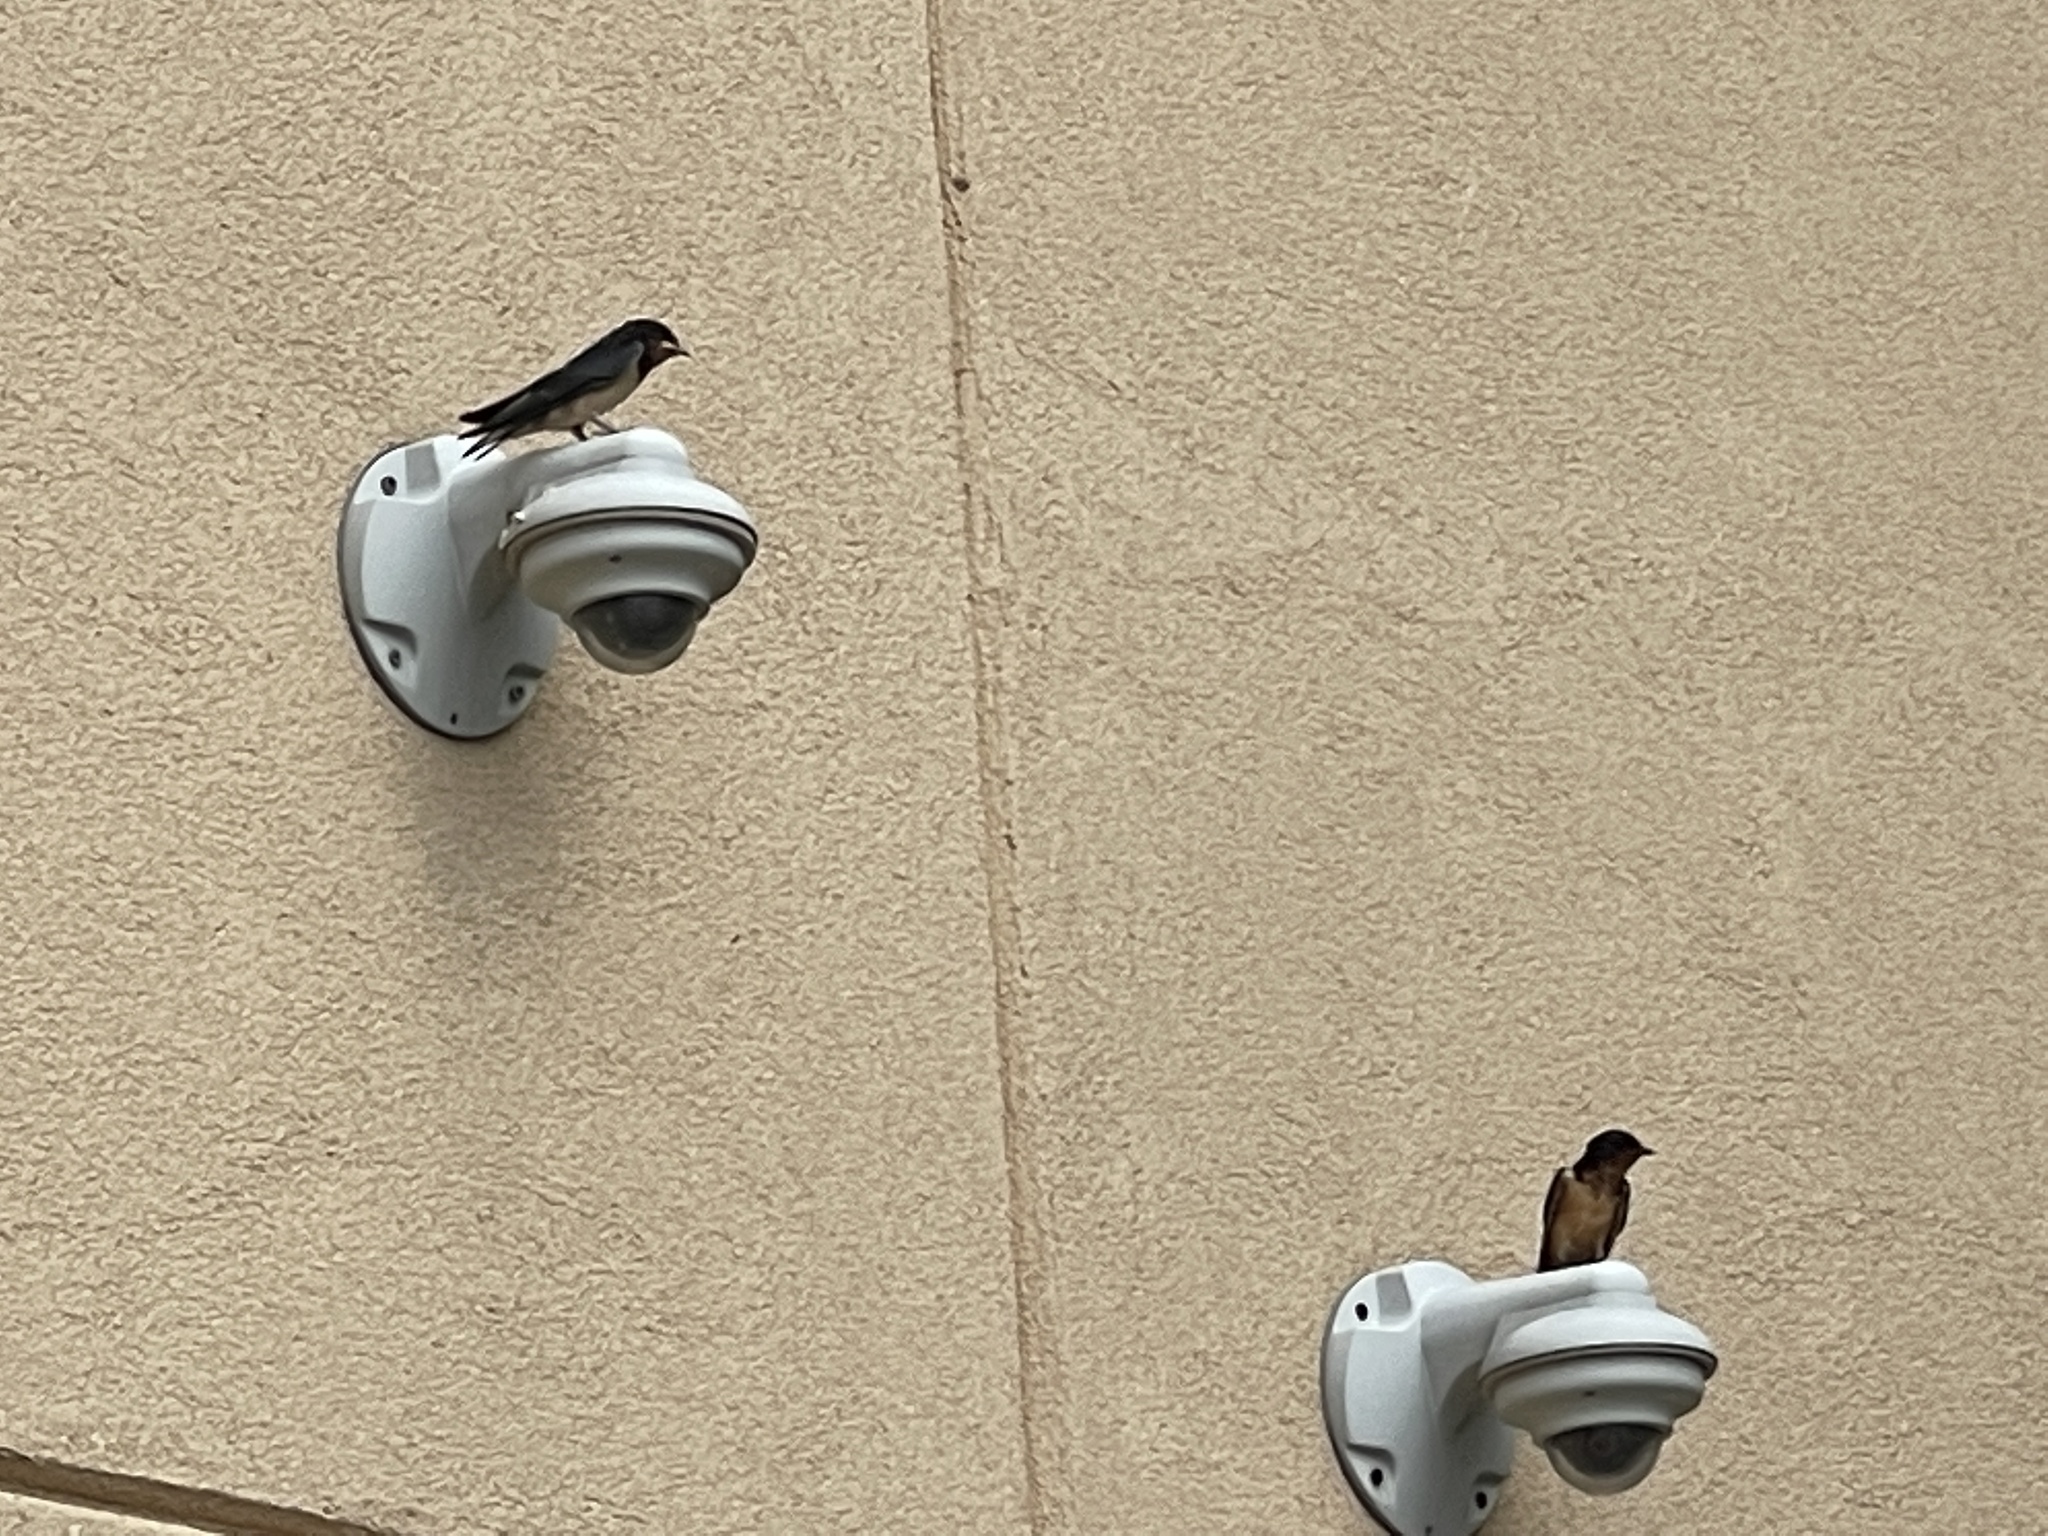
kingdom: Animalia
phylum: Chordata
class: Aves
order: Passeriformes
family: Hirundinidae
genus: Hirundo
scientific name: Hirundo rustica
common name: Barn swallow
